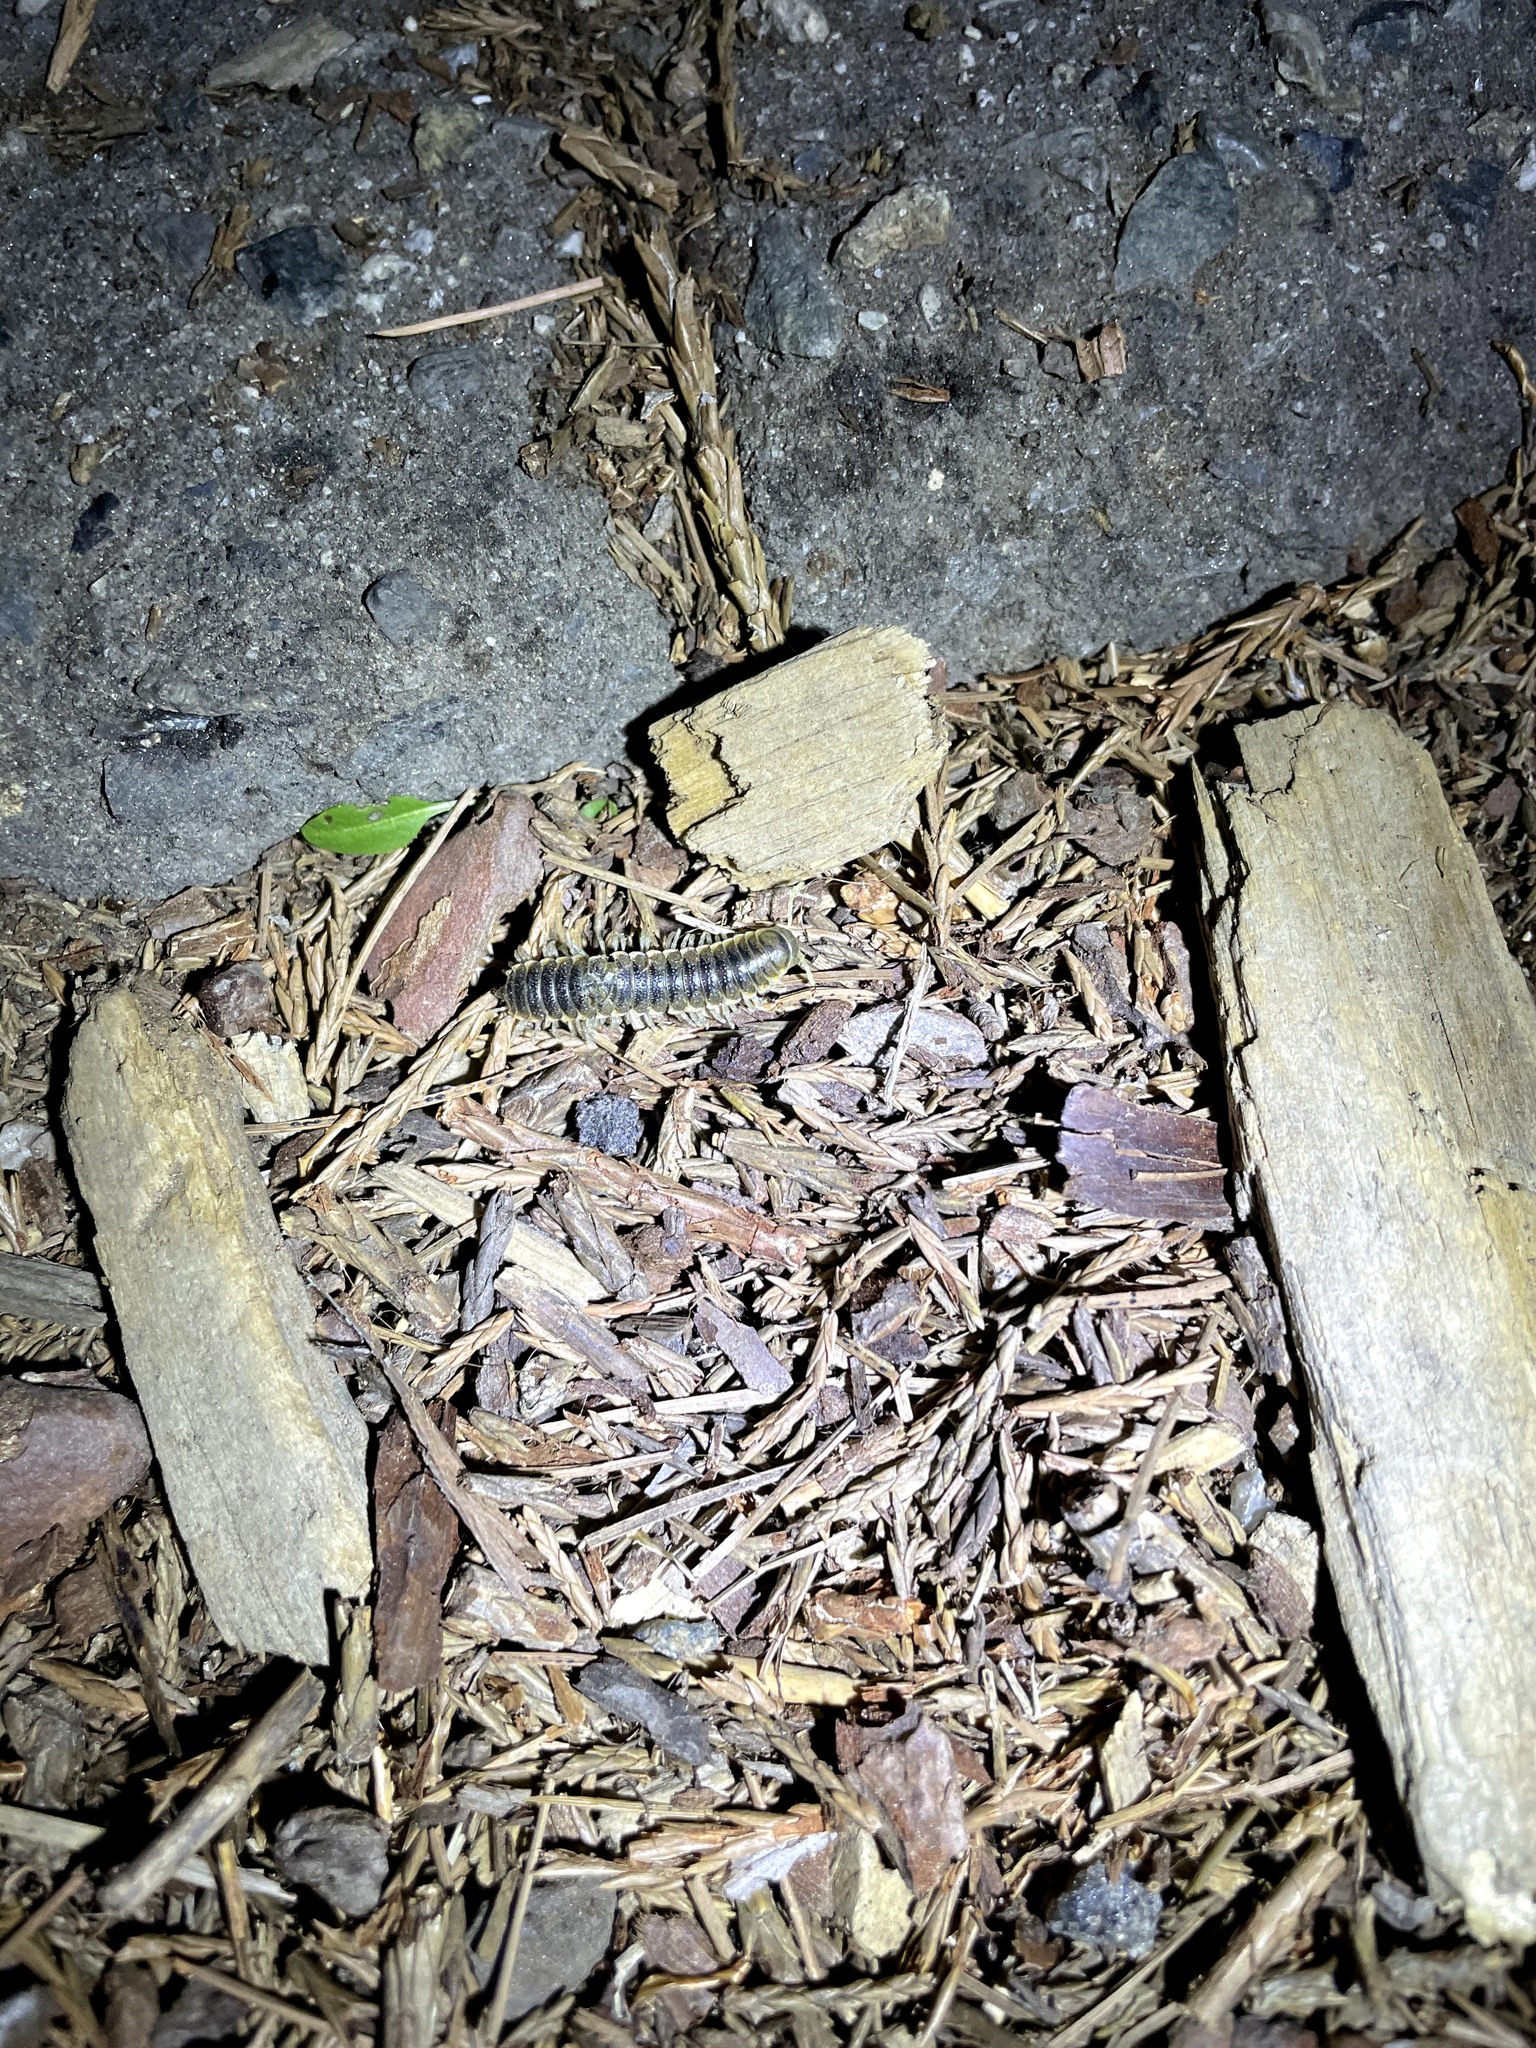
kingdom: Animalia
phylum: Arthropoda
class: Diplopoda
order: Polydesmida
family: Xystodesmidae
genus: Parcipromus
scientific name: Parcipromus gigantoarboricolus
